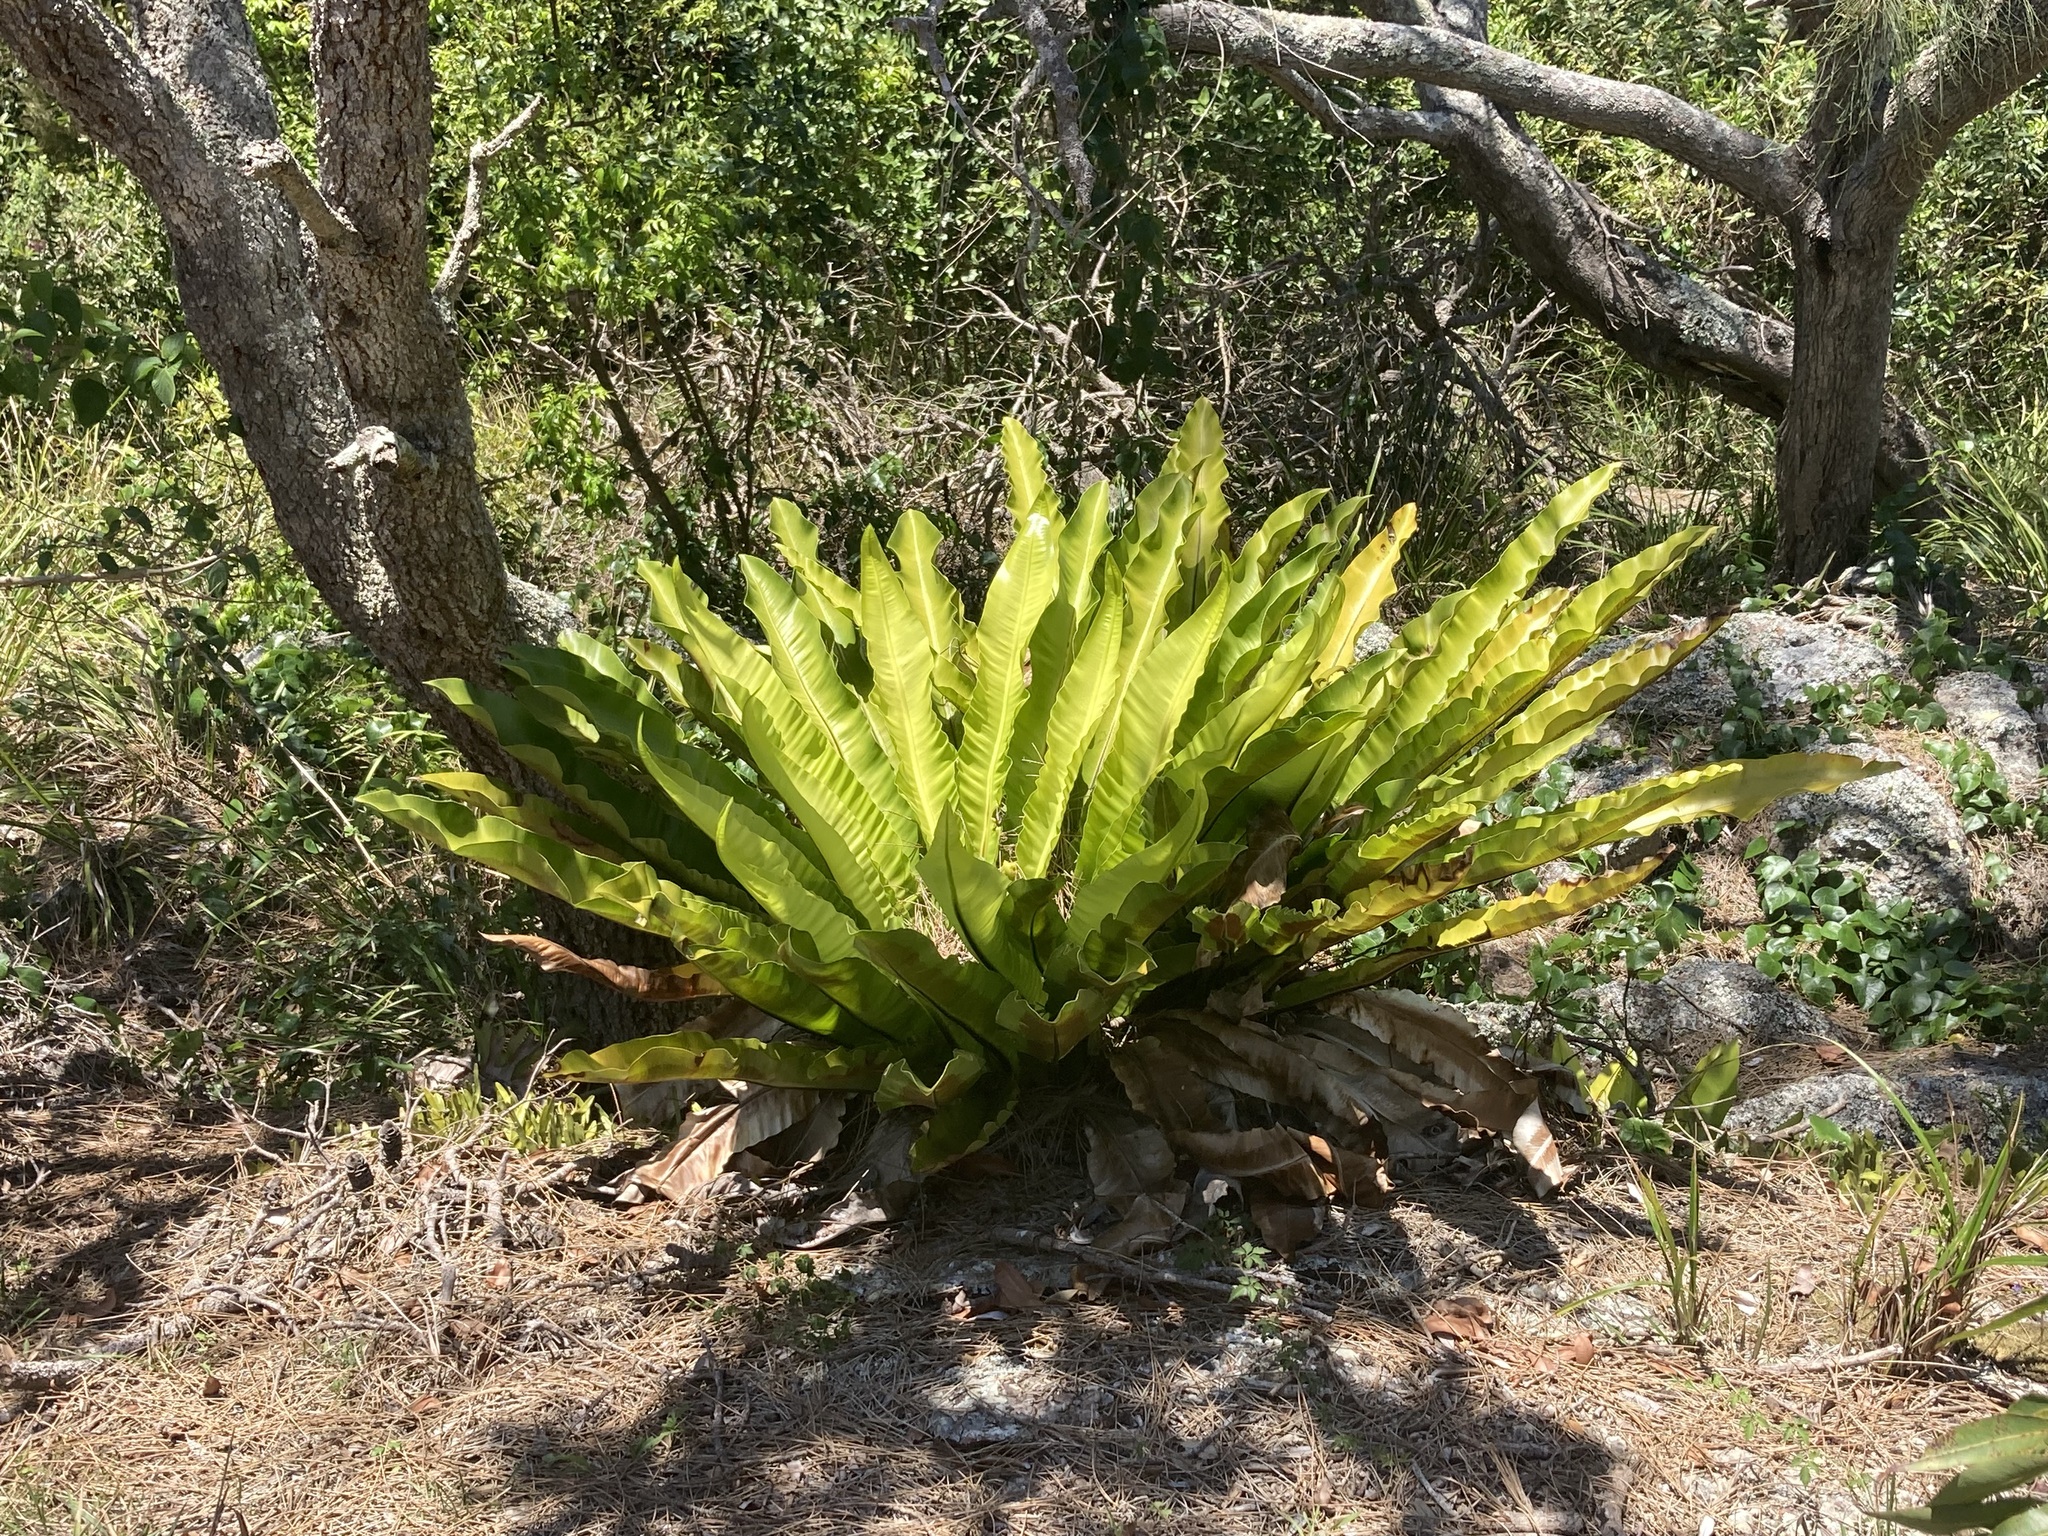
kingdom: Plantae
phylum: Tracheophyta
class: Polypodiopsida
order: Polypodiales
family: Aspleniaceae
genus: Asplenium
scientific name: Asplenium australasicum
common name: Bird's-nest fern
